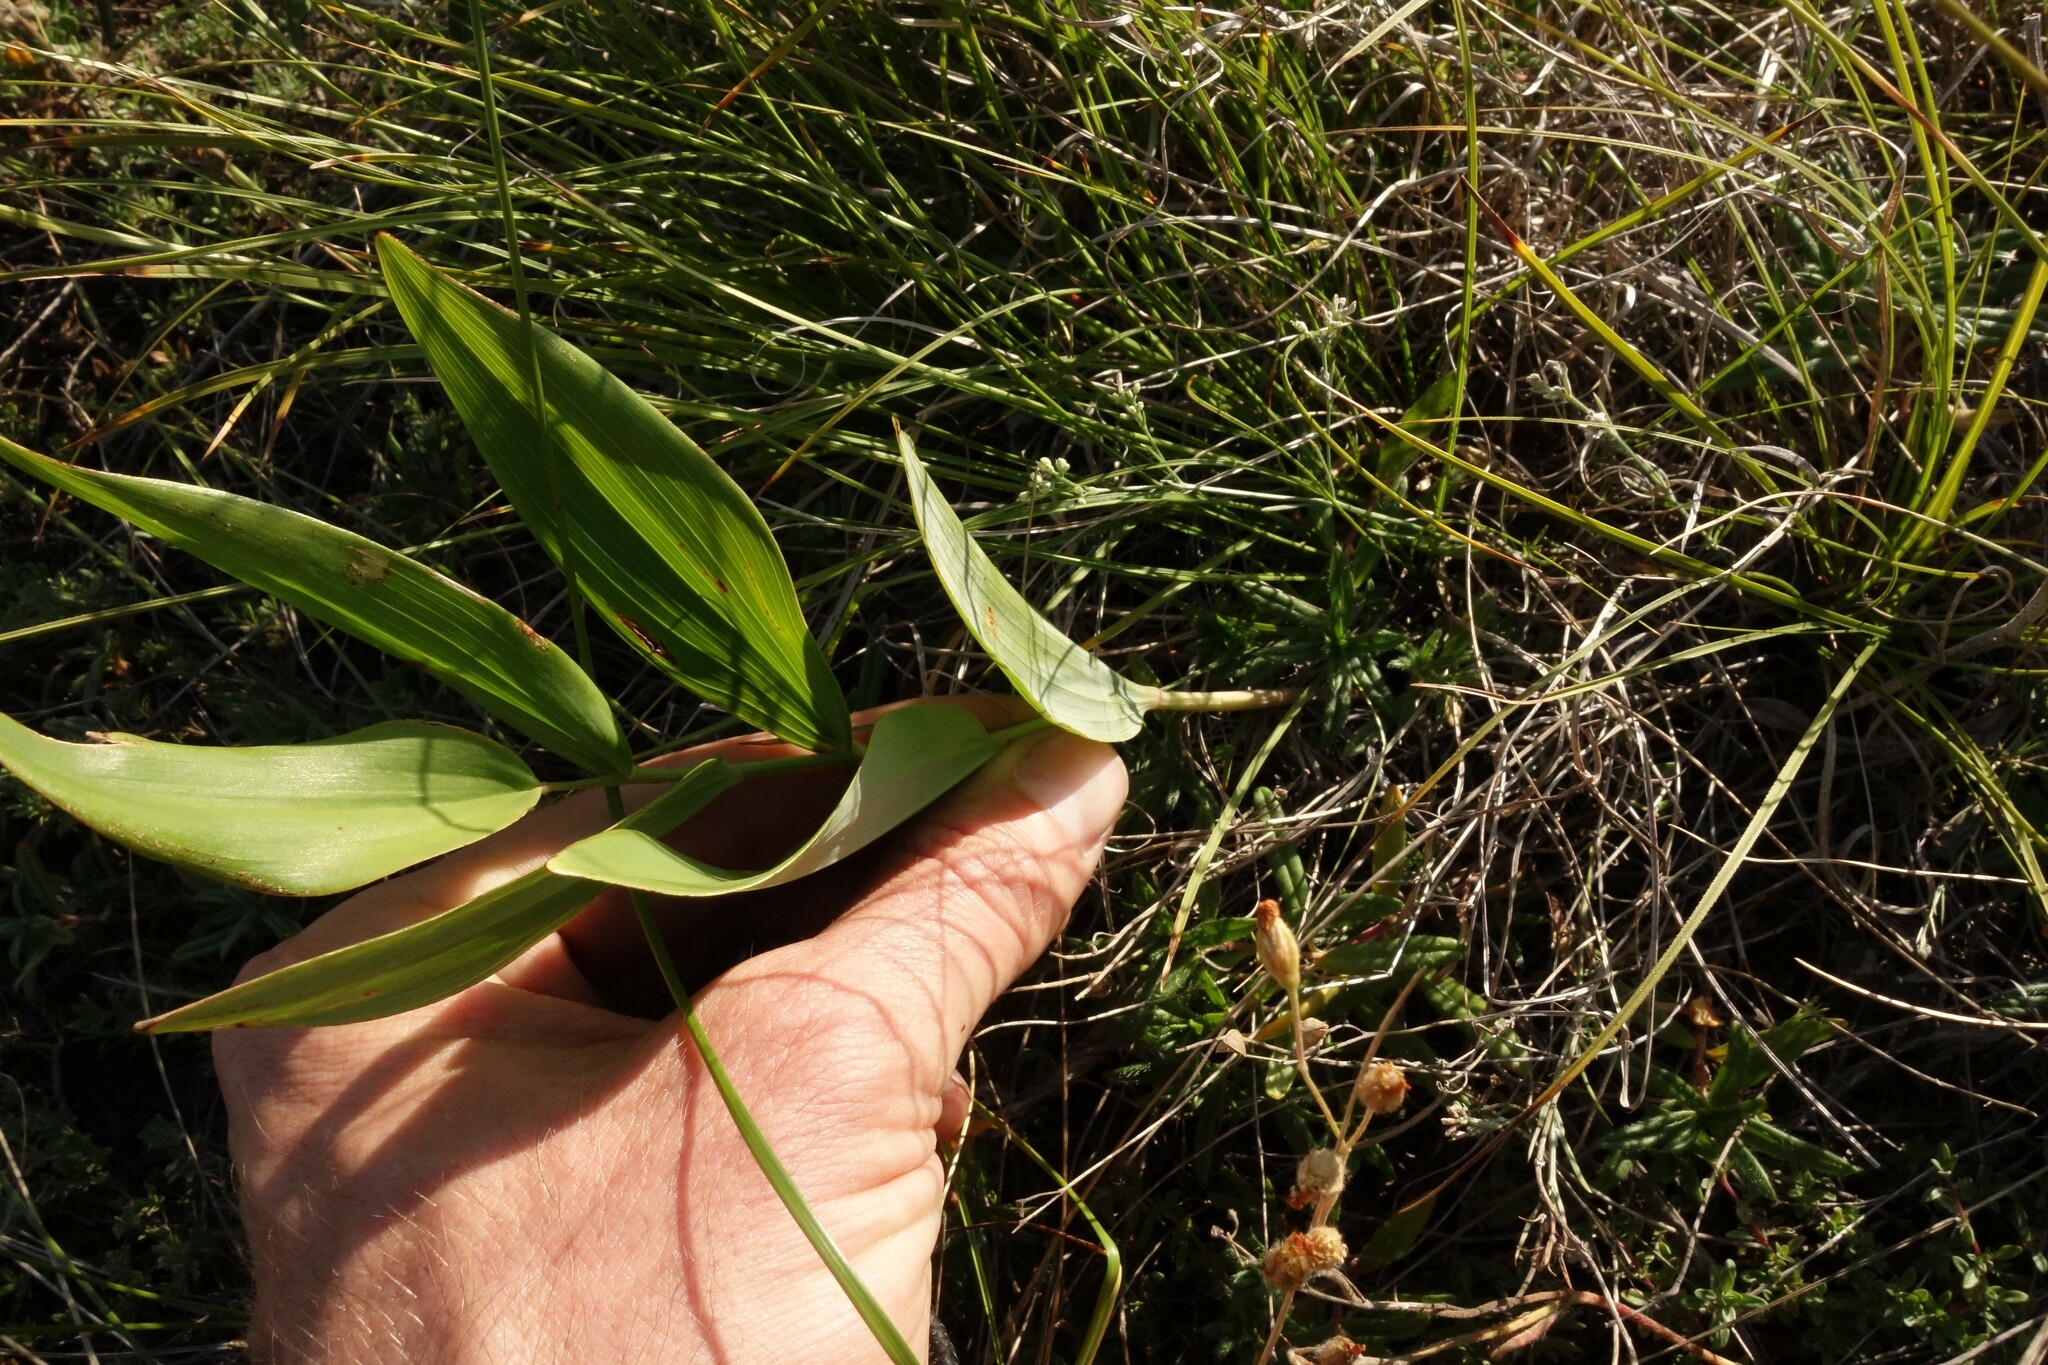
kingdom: Plantae
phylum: Tracheophyta
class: Liliopsida
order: Asparagales
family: Asparagaceae
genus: Polygonatum
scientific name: Polygonatum odoratum
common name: Angular solomon's-seal
